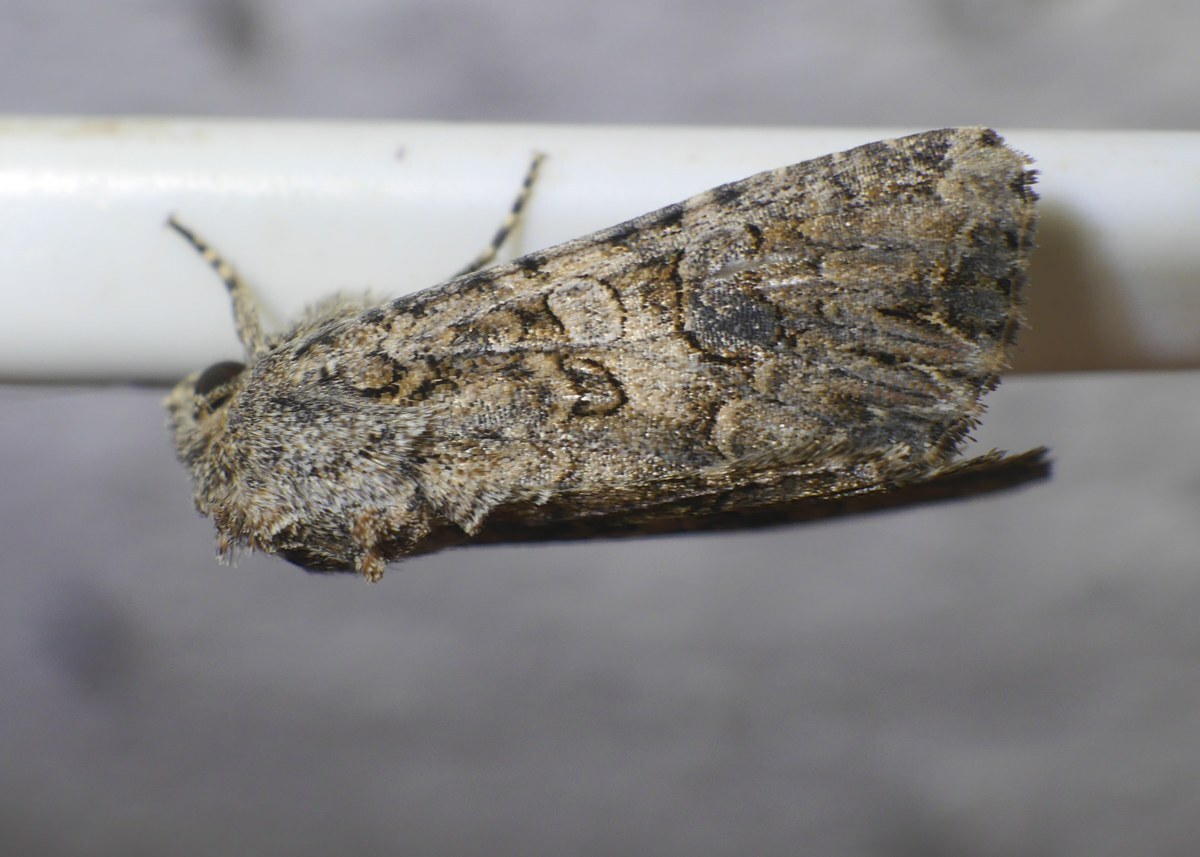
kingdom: Animalia
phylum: Arthropoda
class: Insecta
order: Lepidoptera
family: Noctuidae
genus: Anarta
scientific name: Anarta trifolii
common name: Clover cutworm moth
